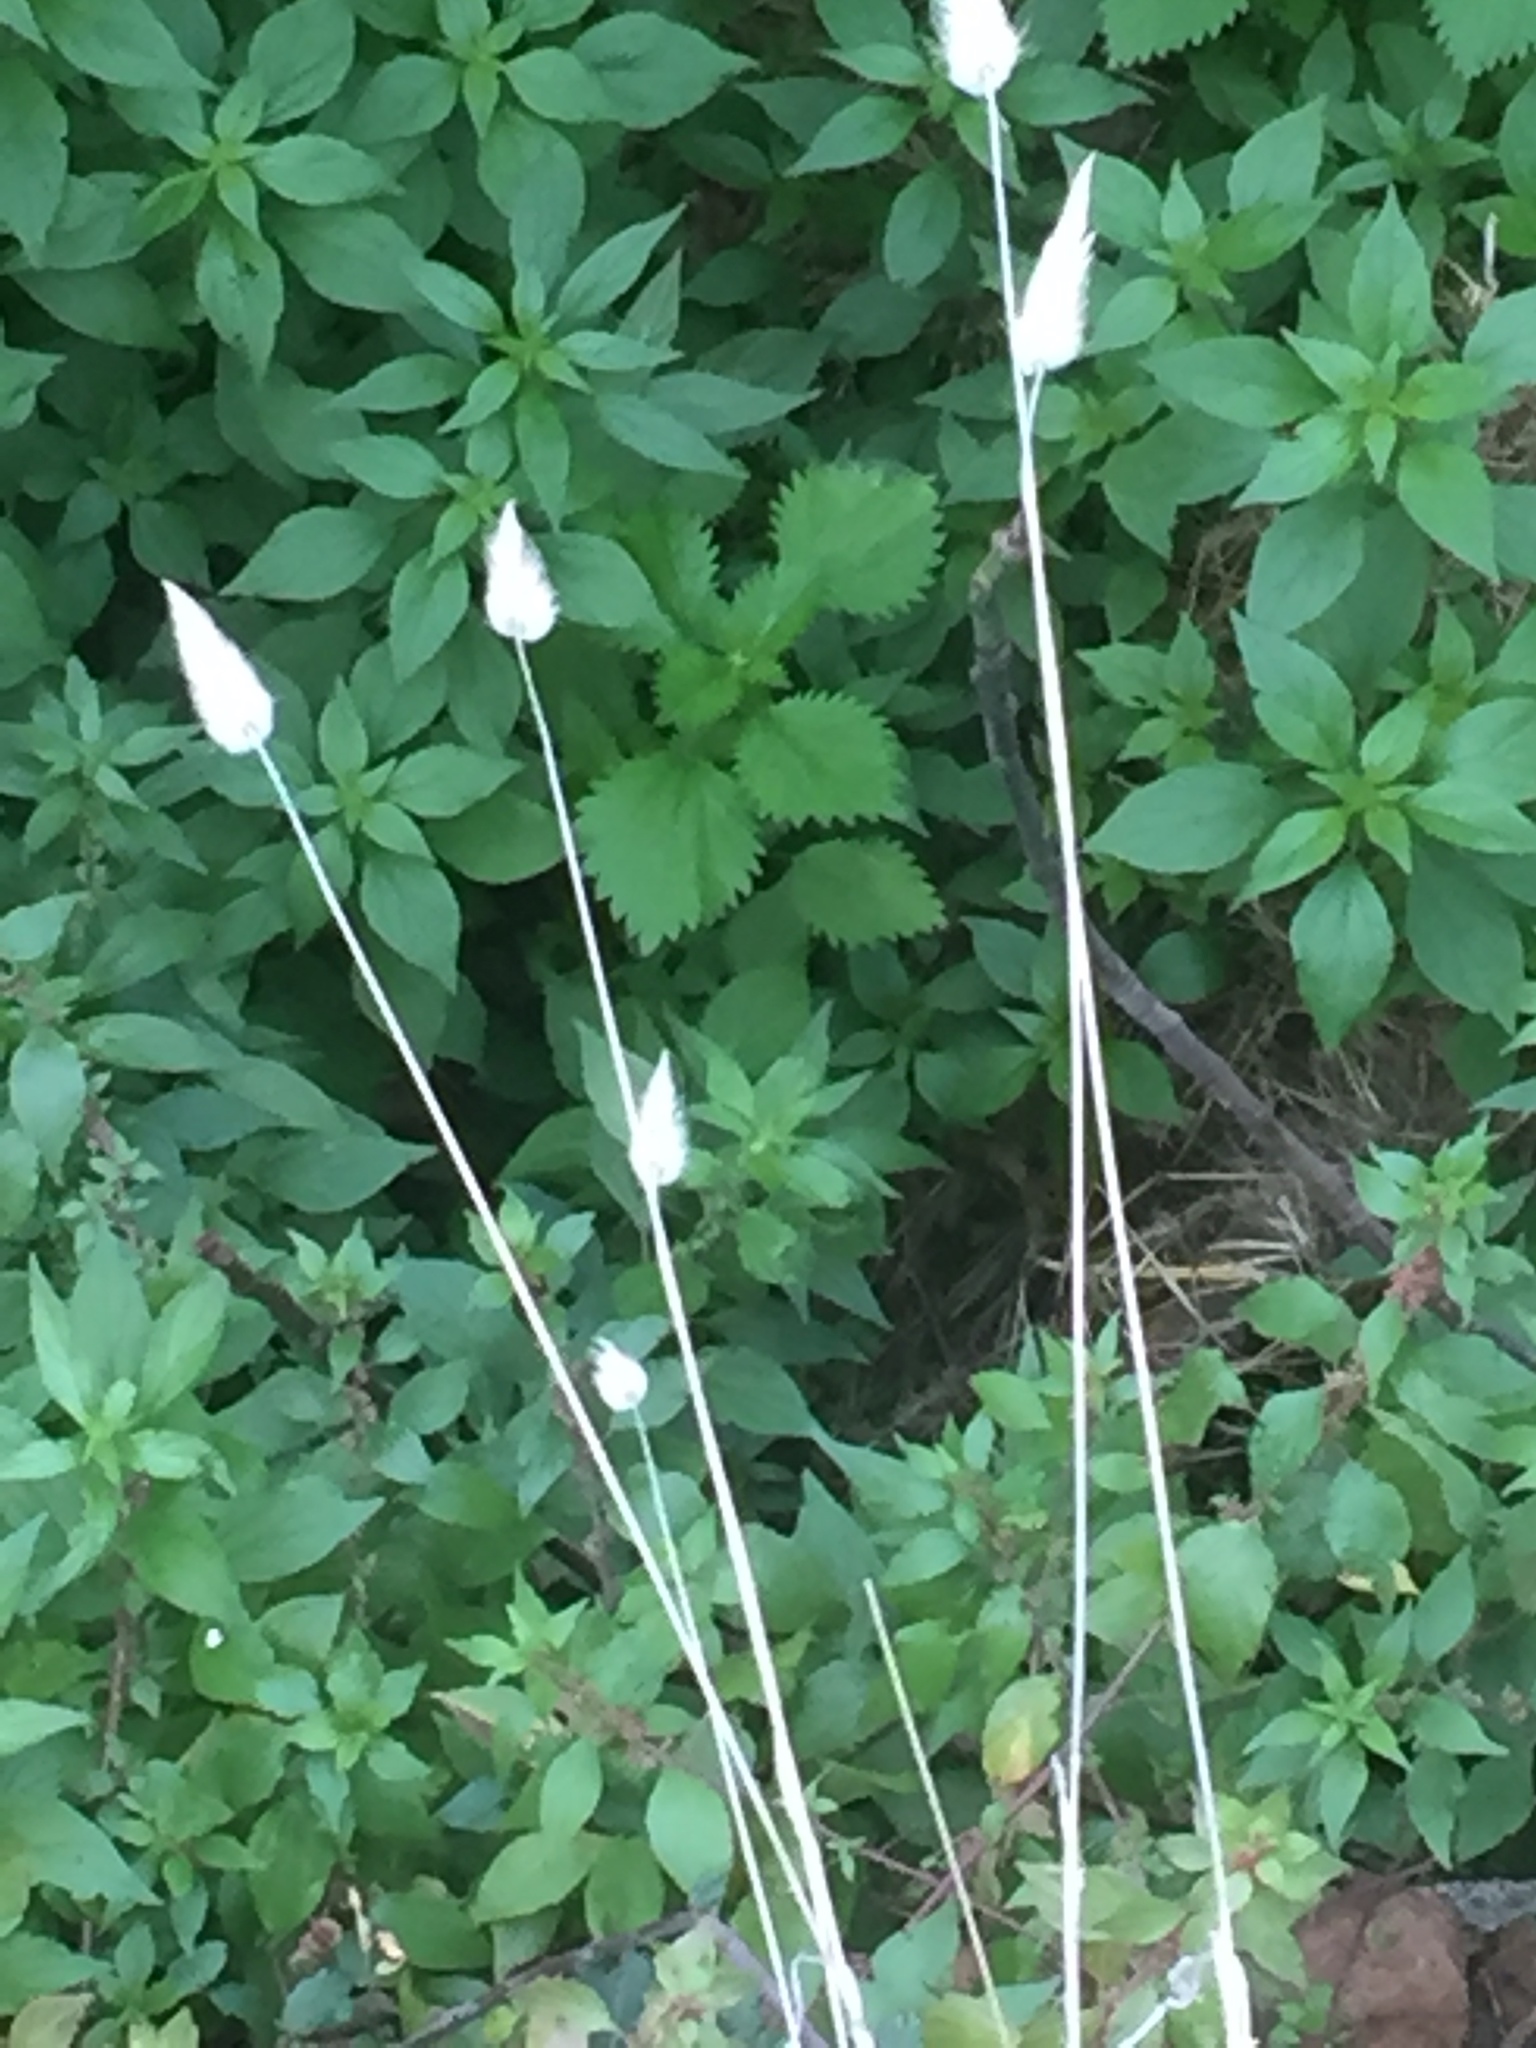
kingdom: Plantae
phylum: Tracheophyta
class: Liliopsida
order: Poales
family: Poaceae
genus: Lagurus
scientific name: Lagurus ovatus
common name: Hare's-tail
